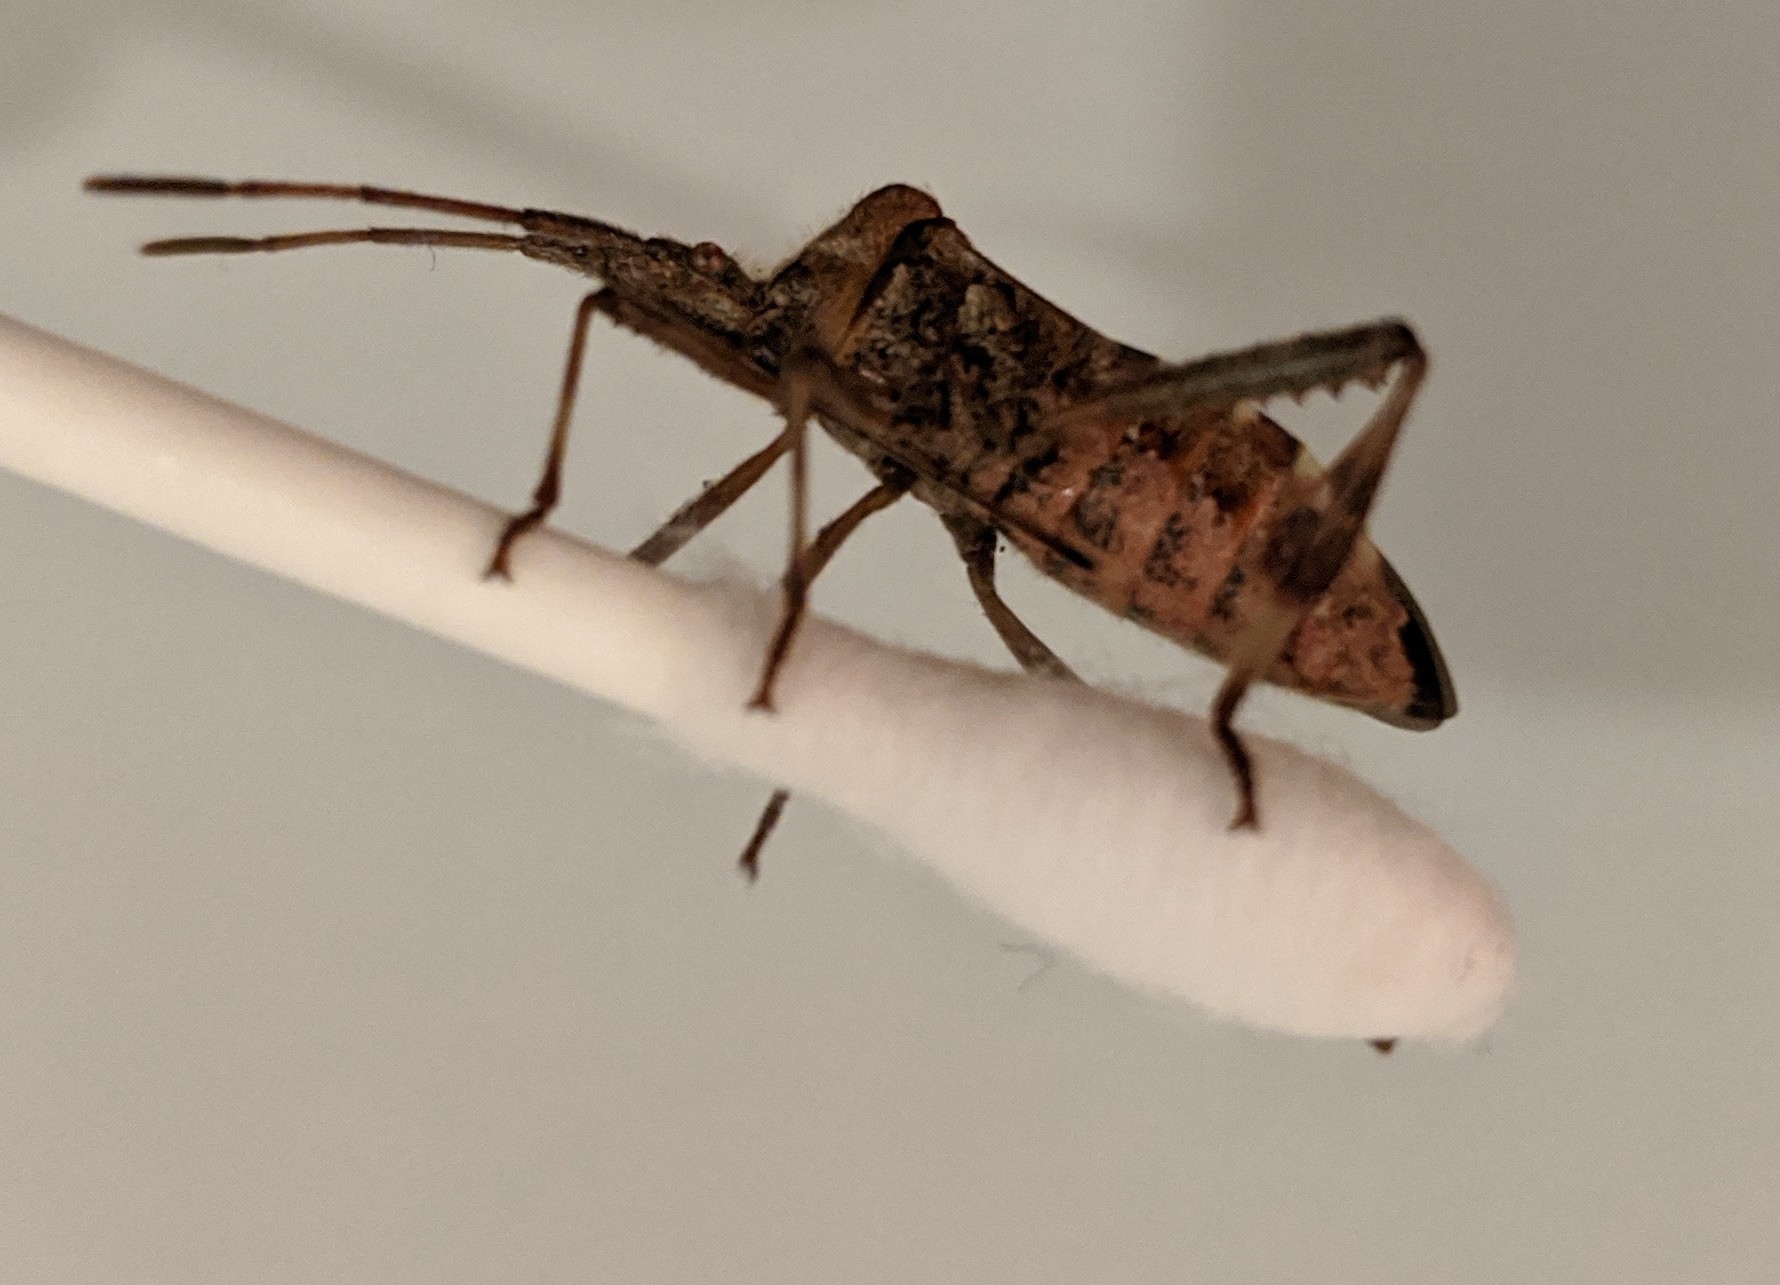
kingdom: Animalia
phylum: Arthropoda
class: Insecta
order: Hemiptera
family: Coreidae
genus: Leptoglossus
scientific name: Leptoglossus occidentalis
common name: Western conifer-seed bug
